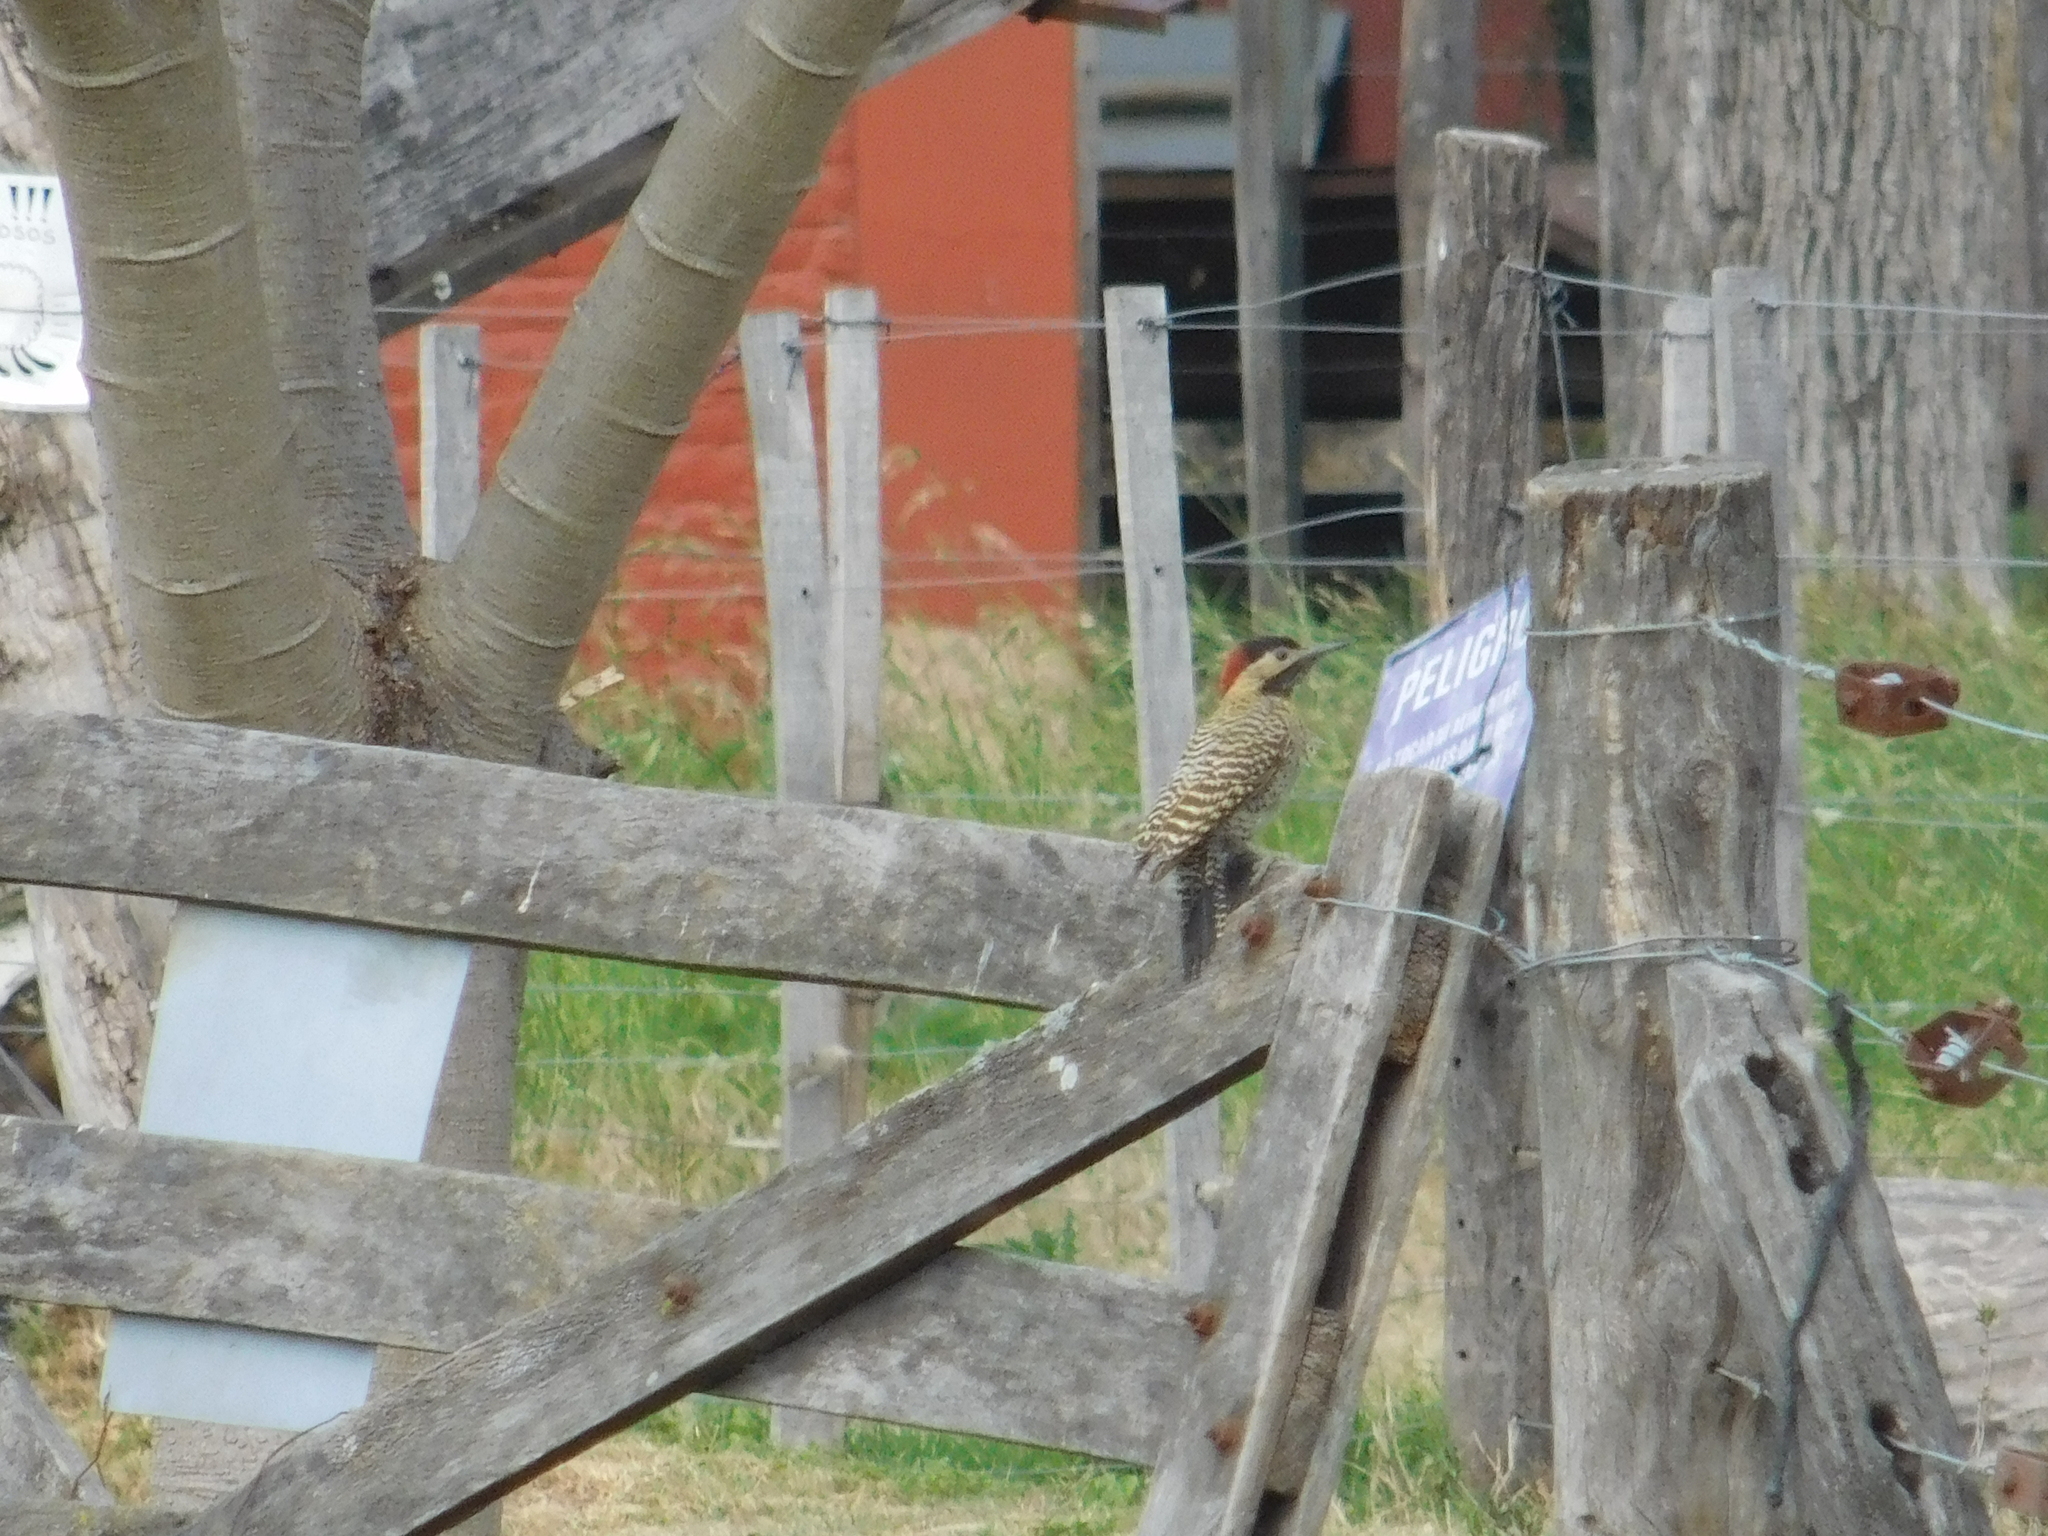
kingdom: Animalia
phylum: Chordata
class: Aves
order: Piciformes
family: Picidae
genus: Colaptes
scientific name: Colaptes melanochloros
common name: Green-barred woodpecker
